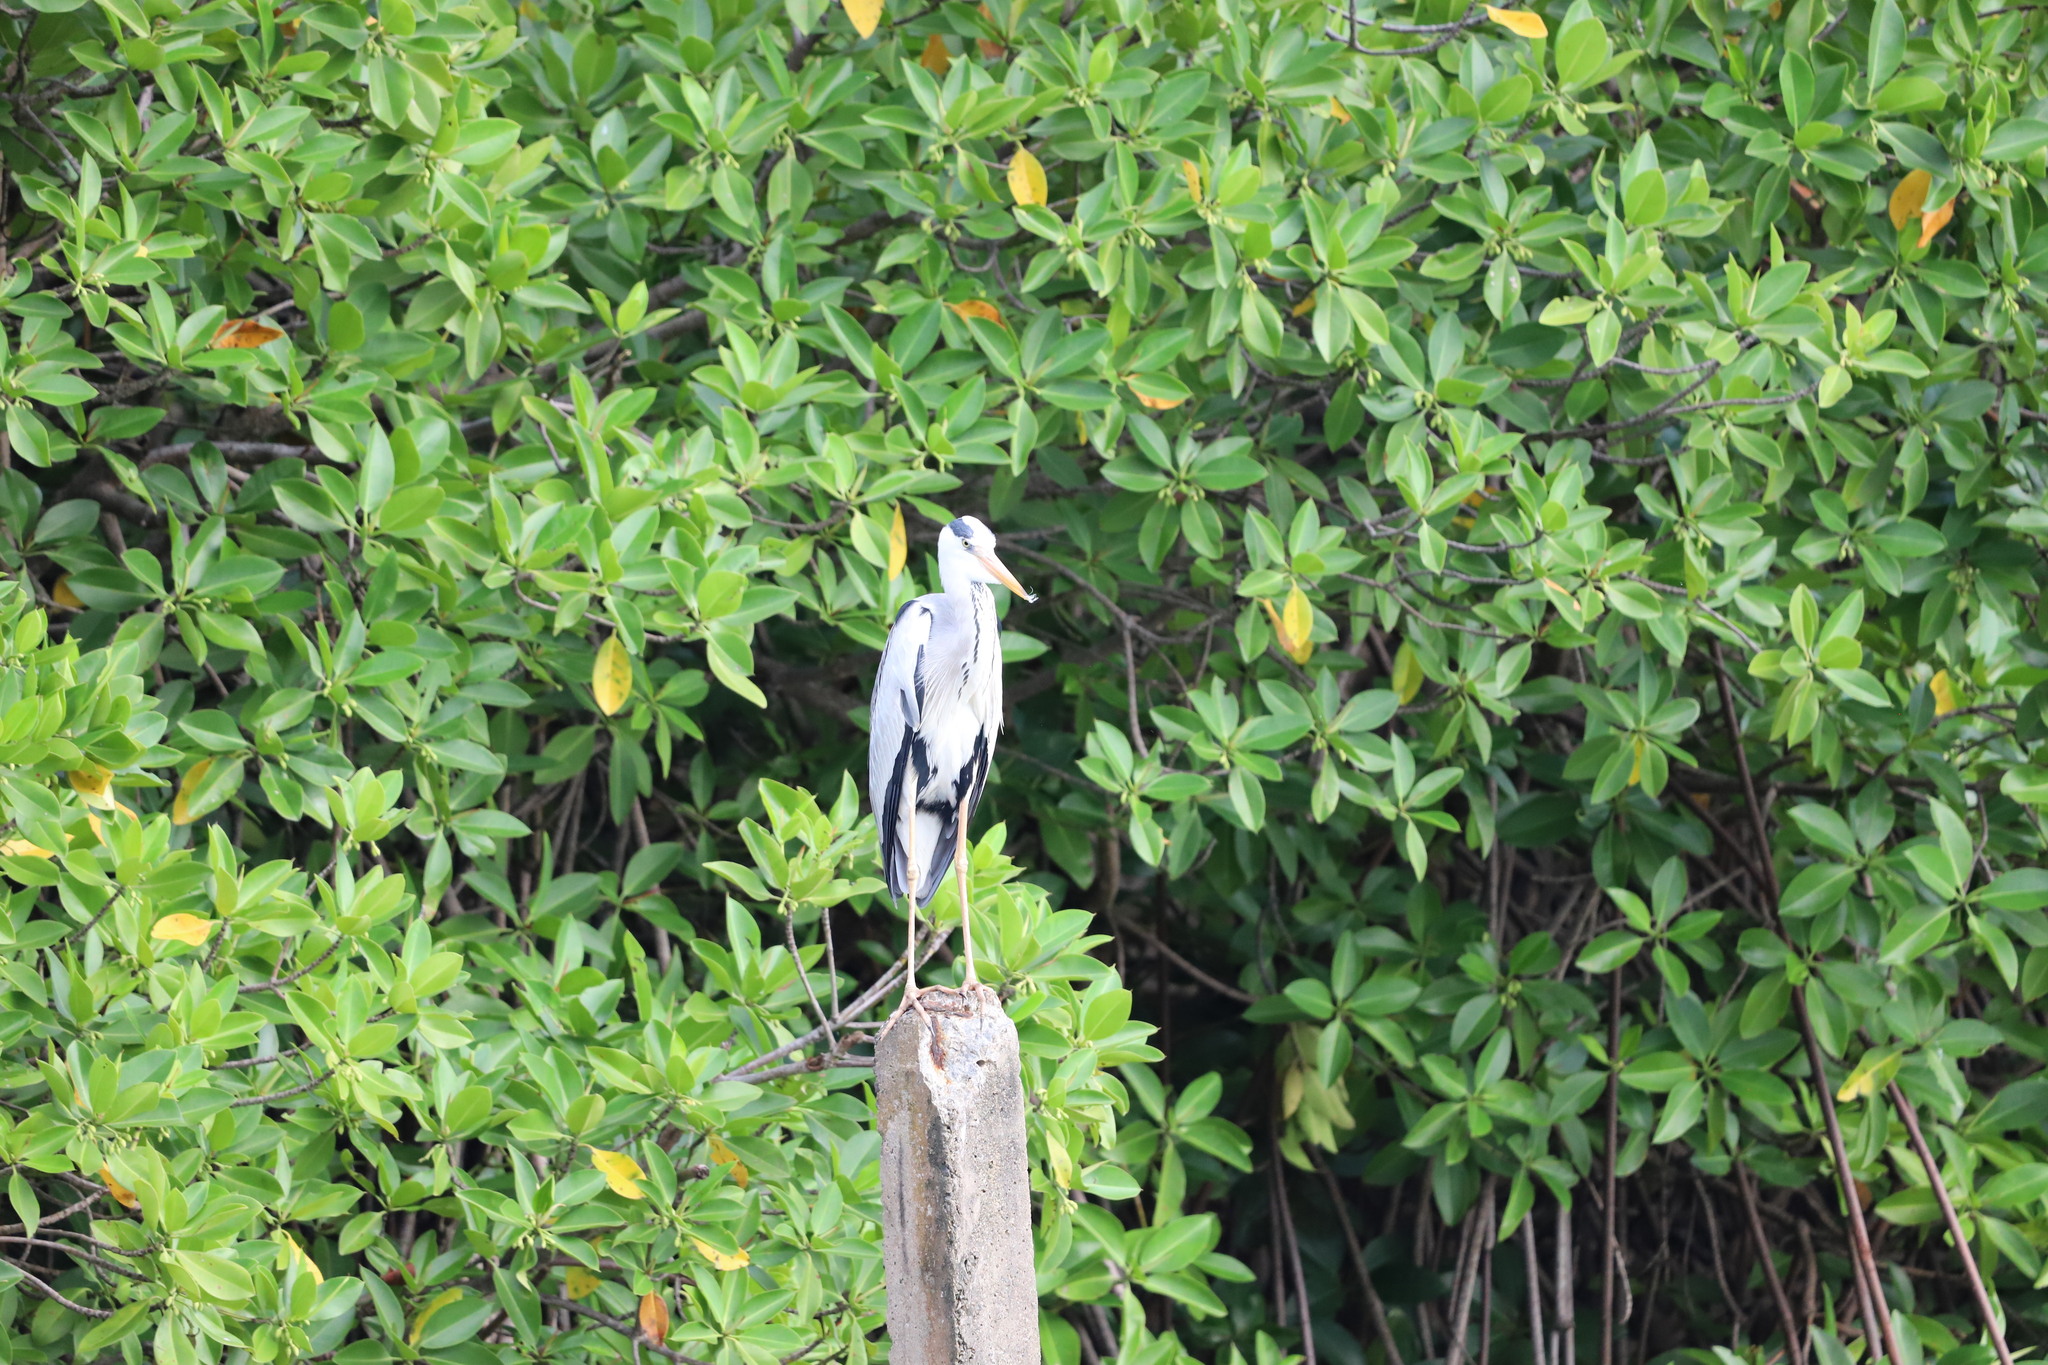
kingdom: Animalia
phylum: Chordata
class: Aves
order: Pelecaniformes
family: Ardeidae
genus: Ardea
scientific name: Ardea cinerea
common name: Grey heron
